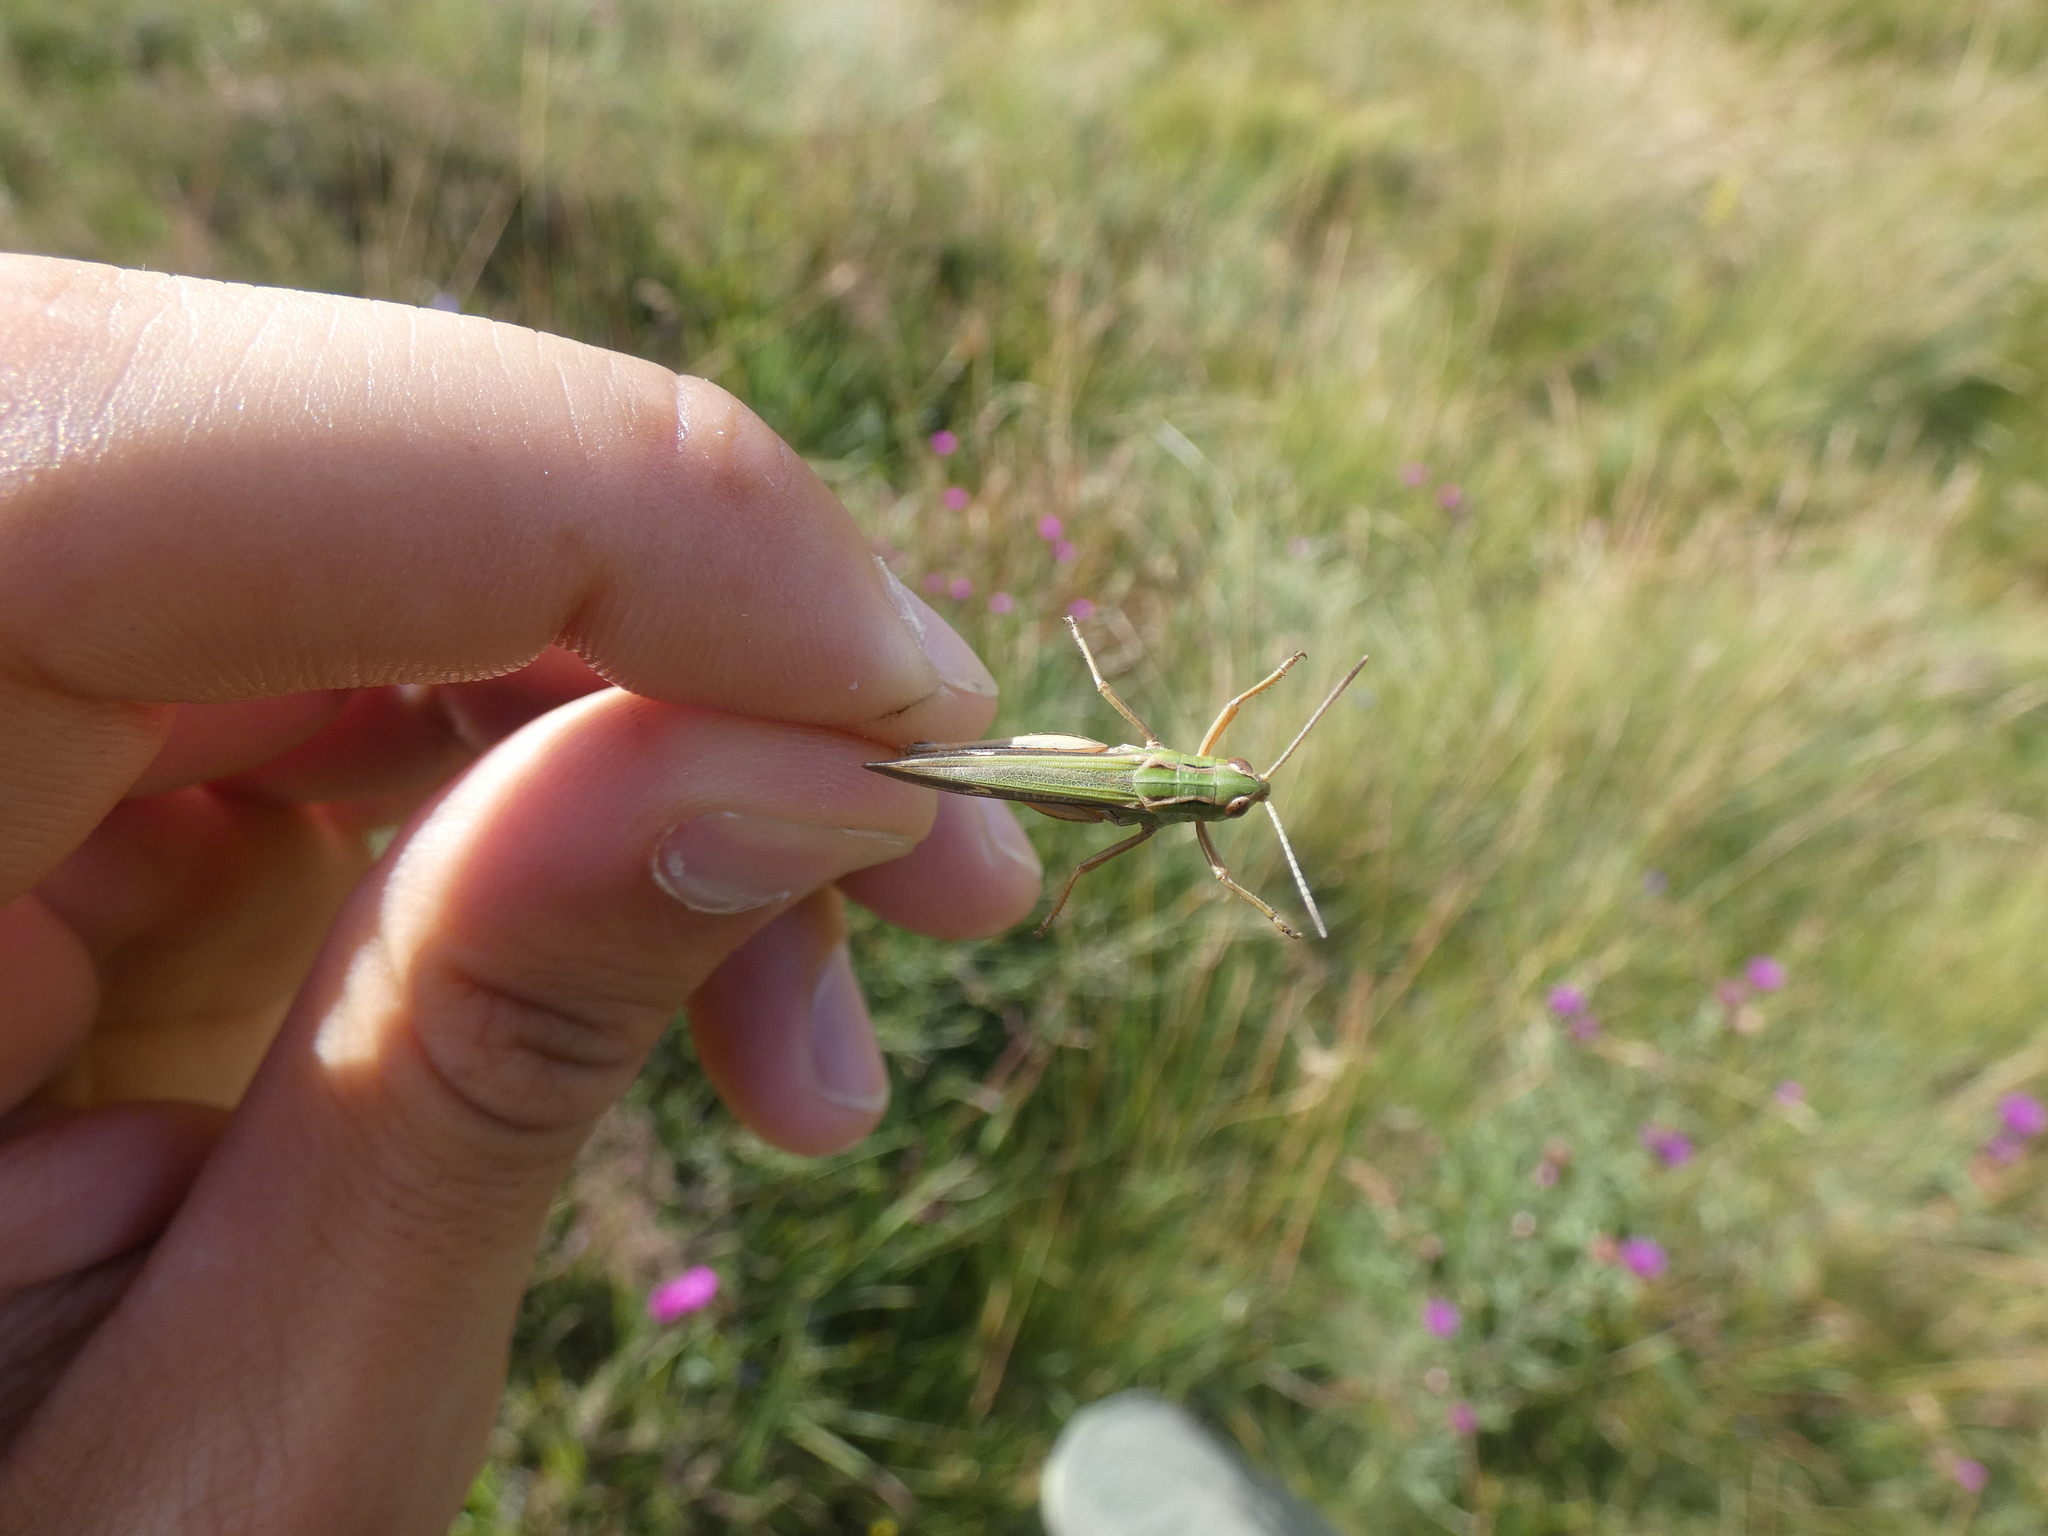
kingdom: Animalia
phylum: Arthropoda
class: Insecta
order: Orthoptera
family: Acrididae
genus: Stenobothrus
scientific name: Stenobothrus lineatus
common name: Stripe-winged grasshopper
